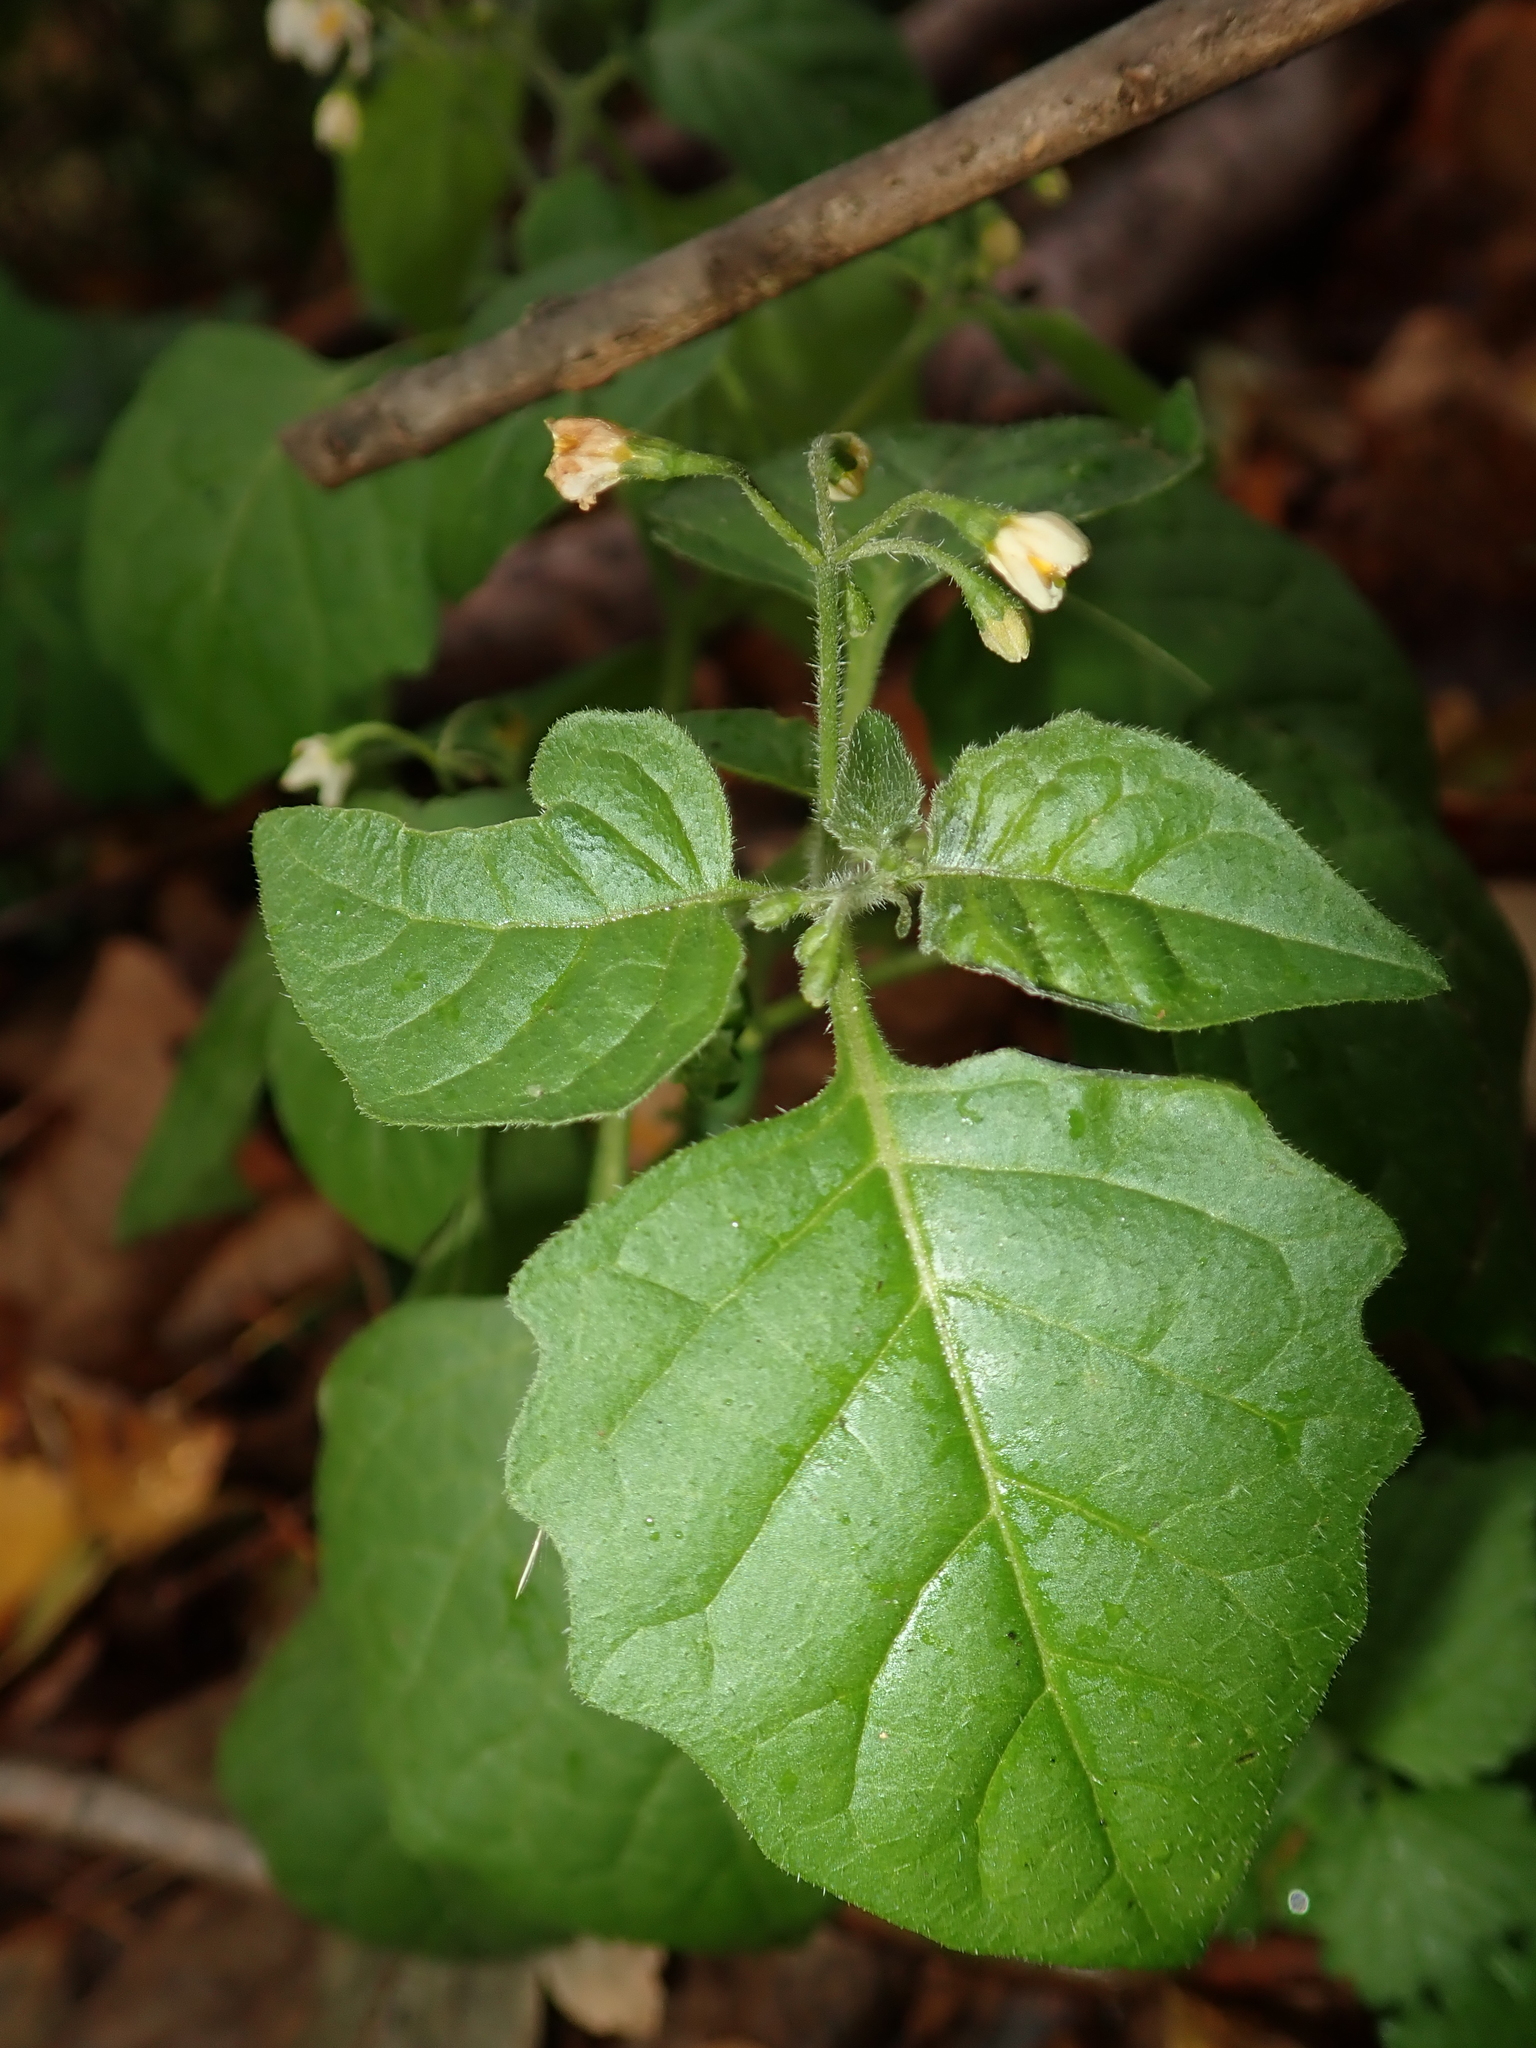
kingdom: Plantae
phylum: Tracheophyta
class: Magnoliopsida
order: Solanales
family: Solanaceae
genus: Solanum
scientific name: Solanum nigrum
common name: Black nightshade
